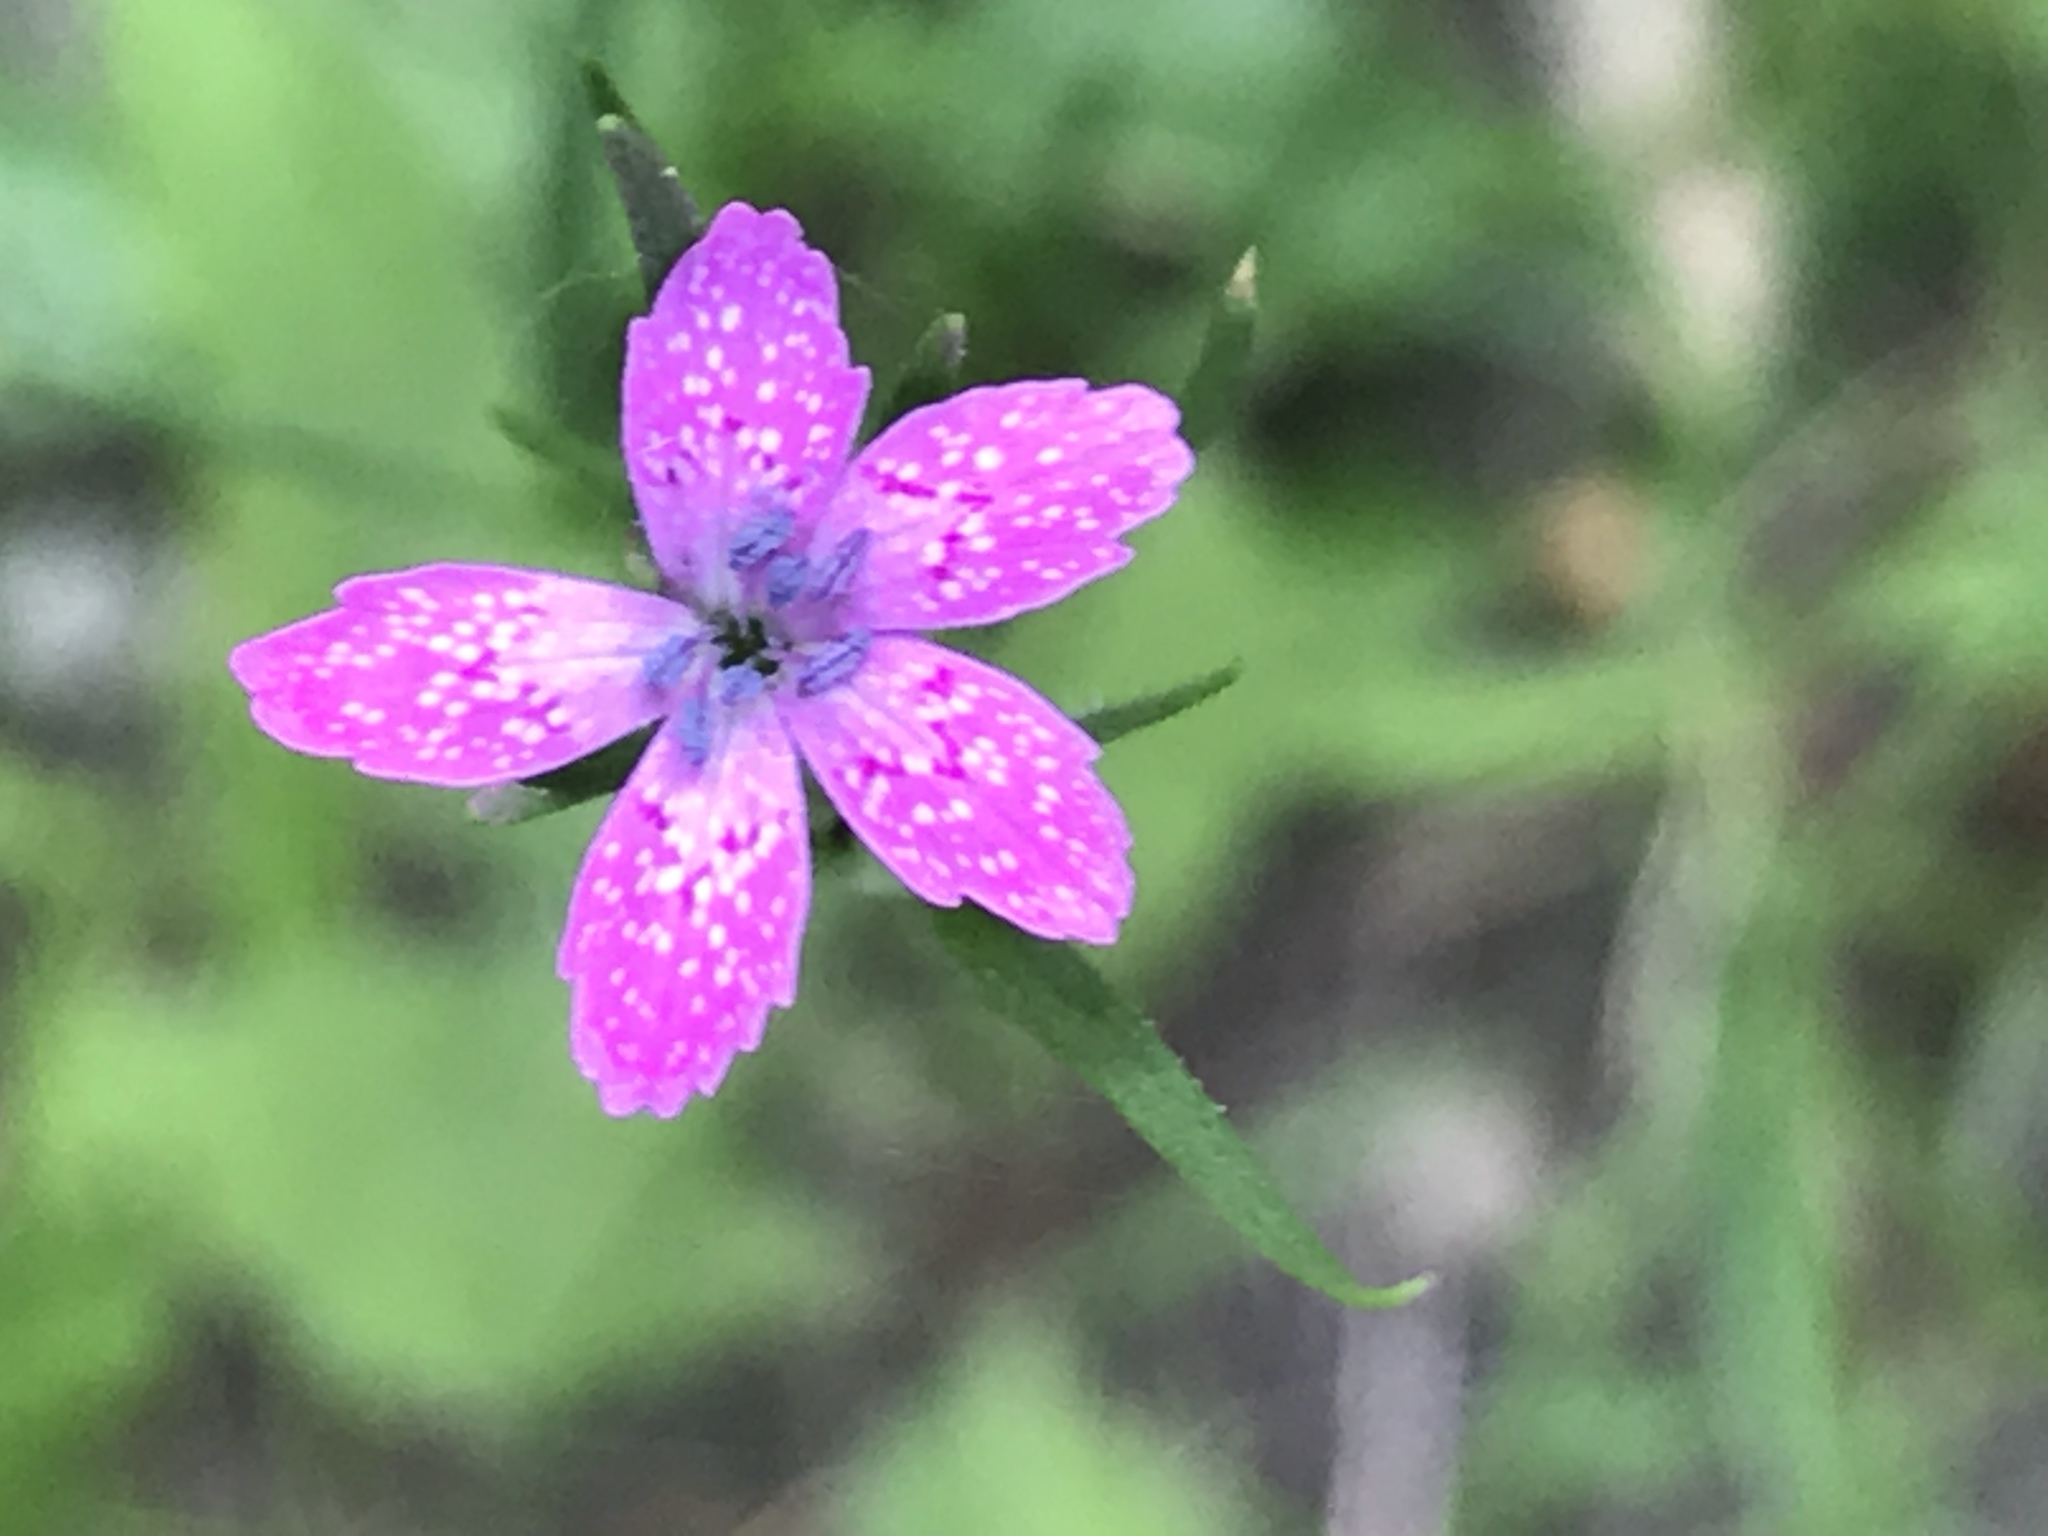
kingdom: Plantae
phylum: Tracheophyta
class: Magnoliopsida
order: Caryophyllales
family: Caryophyllaceae
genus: Dianthus
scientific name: Dianthus armeria
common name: Deptford pink
